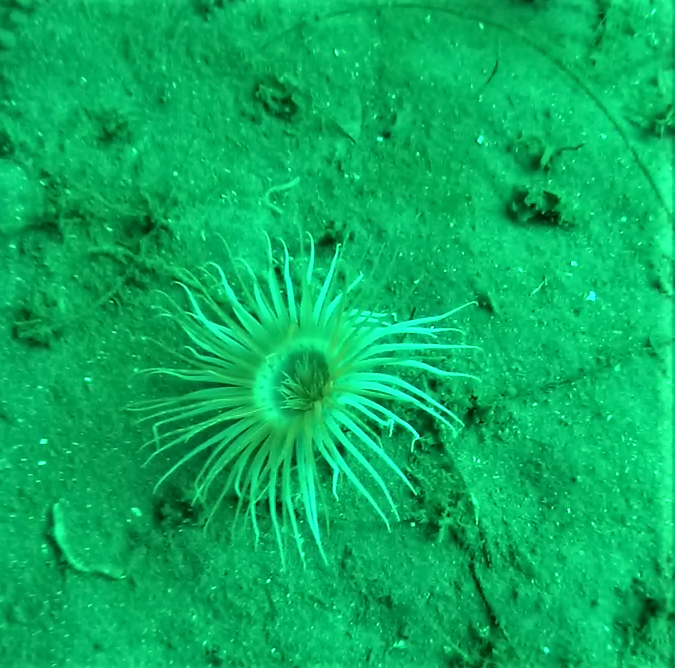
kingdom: Animalia
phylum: Cnidaria
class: Anthozoa
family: Cerianthidae
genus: Pachycerianthus
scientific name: Pachycerianthus torreyi
